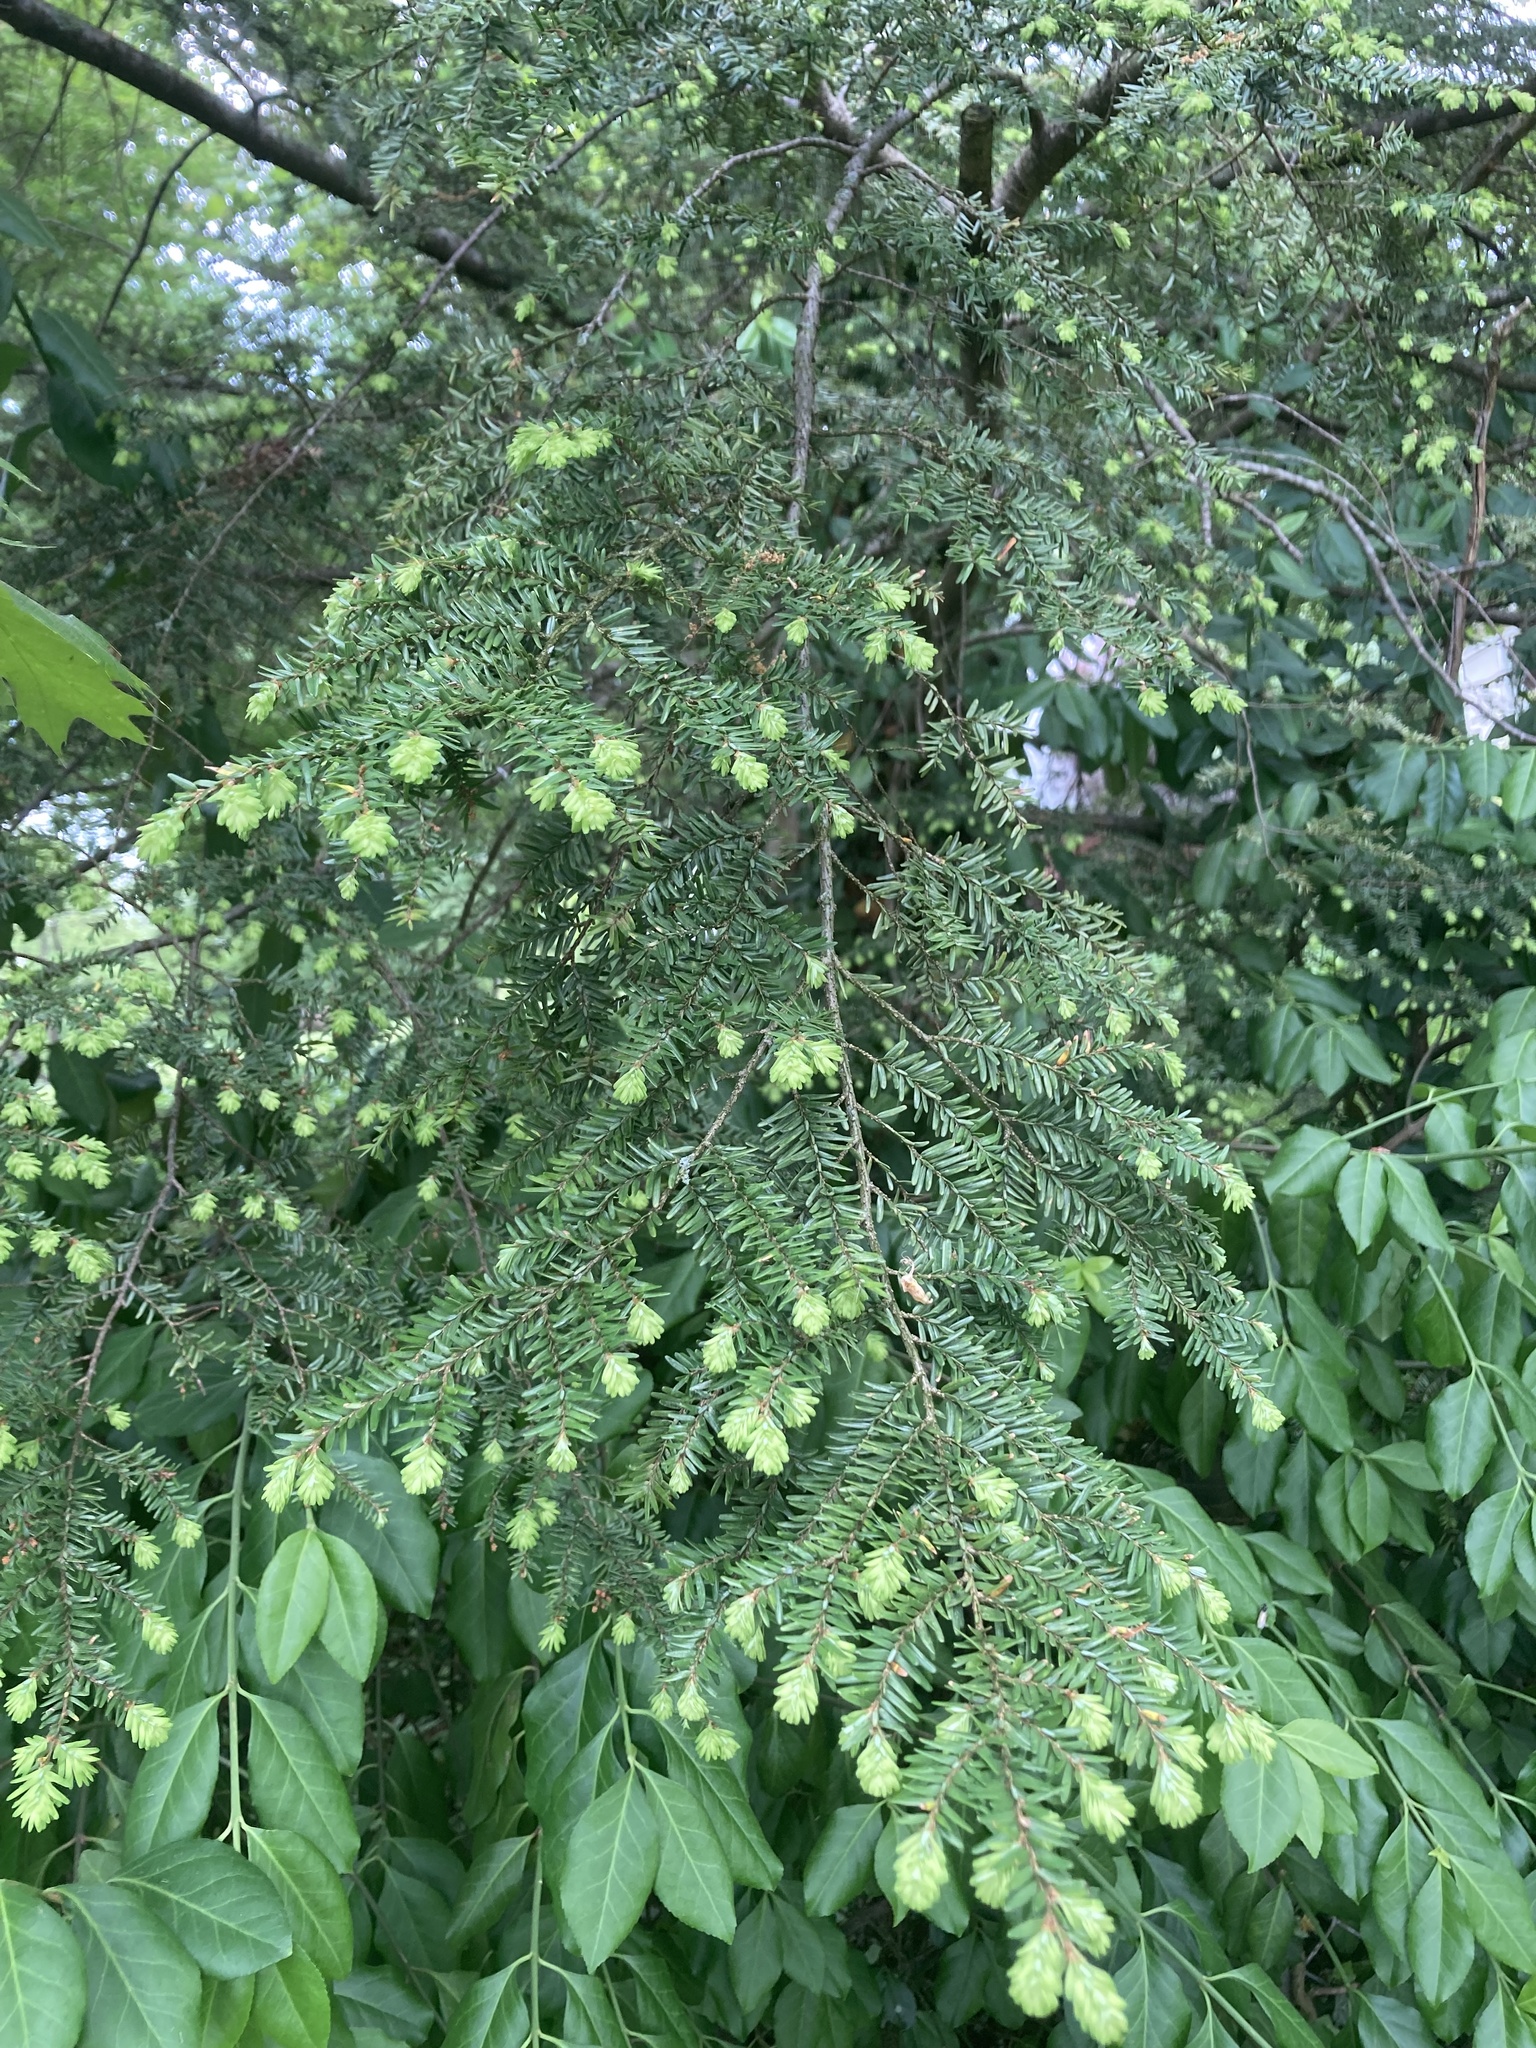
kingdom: Plantae
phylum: Tracheophyta
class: Pinopsida
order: Pinales
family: Pinaceae
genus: Tsuga
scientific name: Tsuga canadensis
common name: Eastern hemlock
